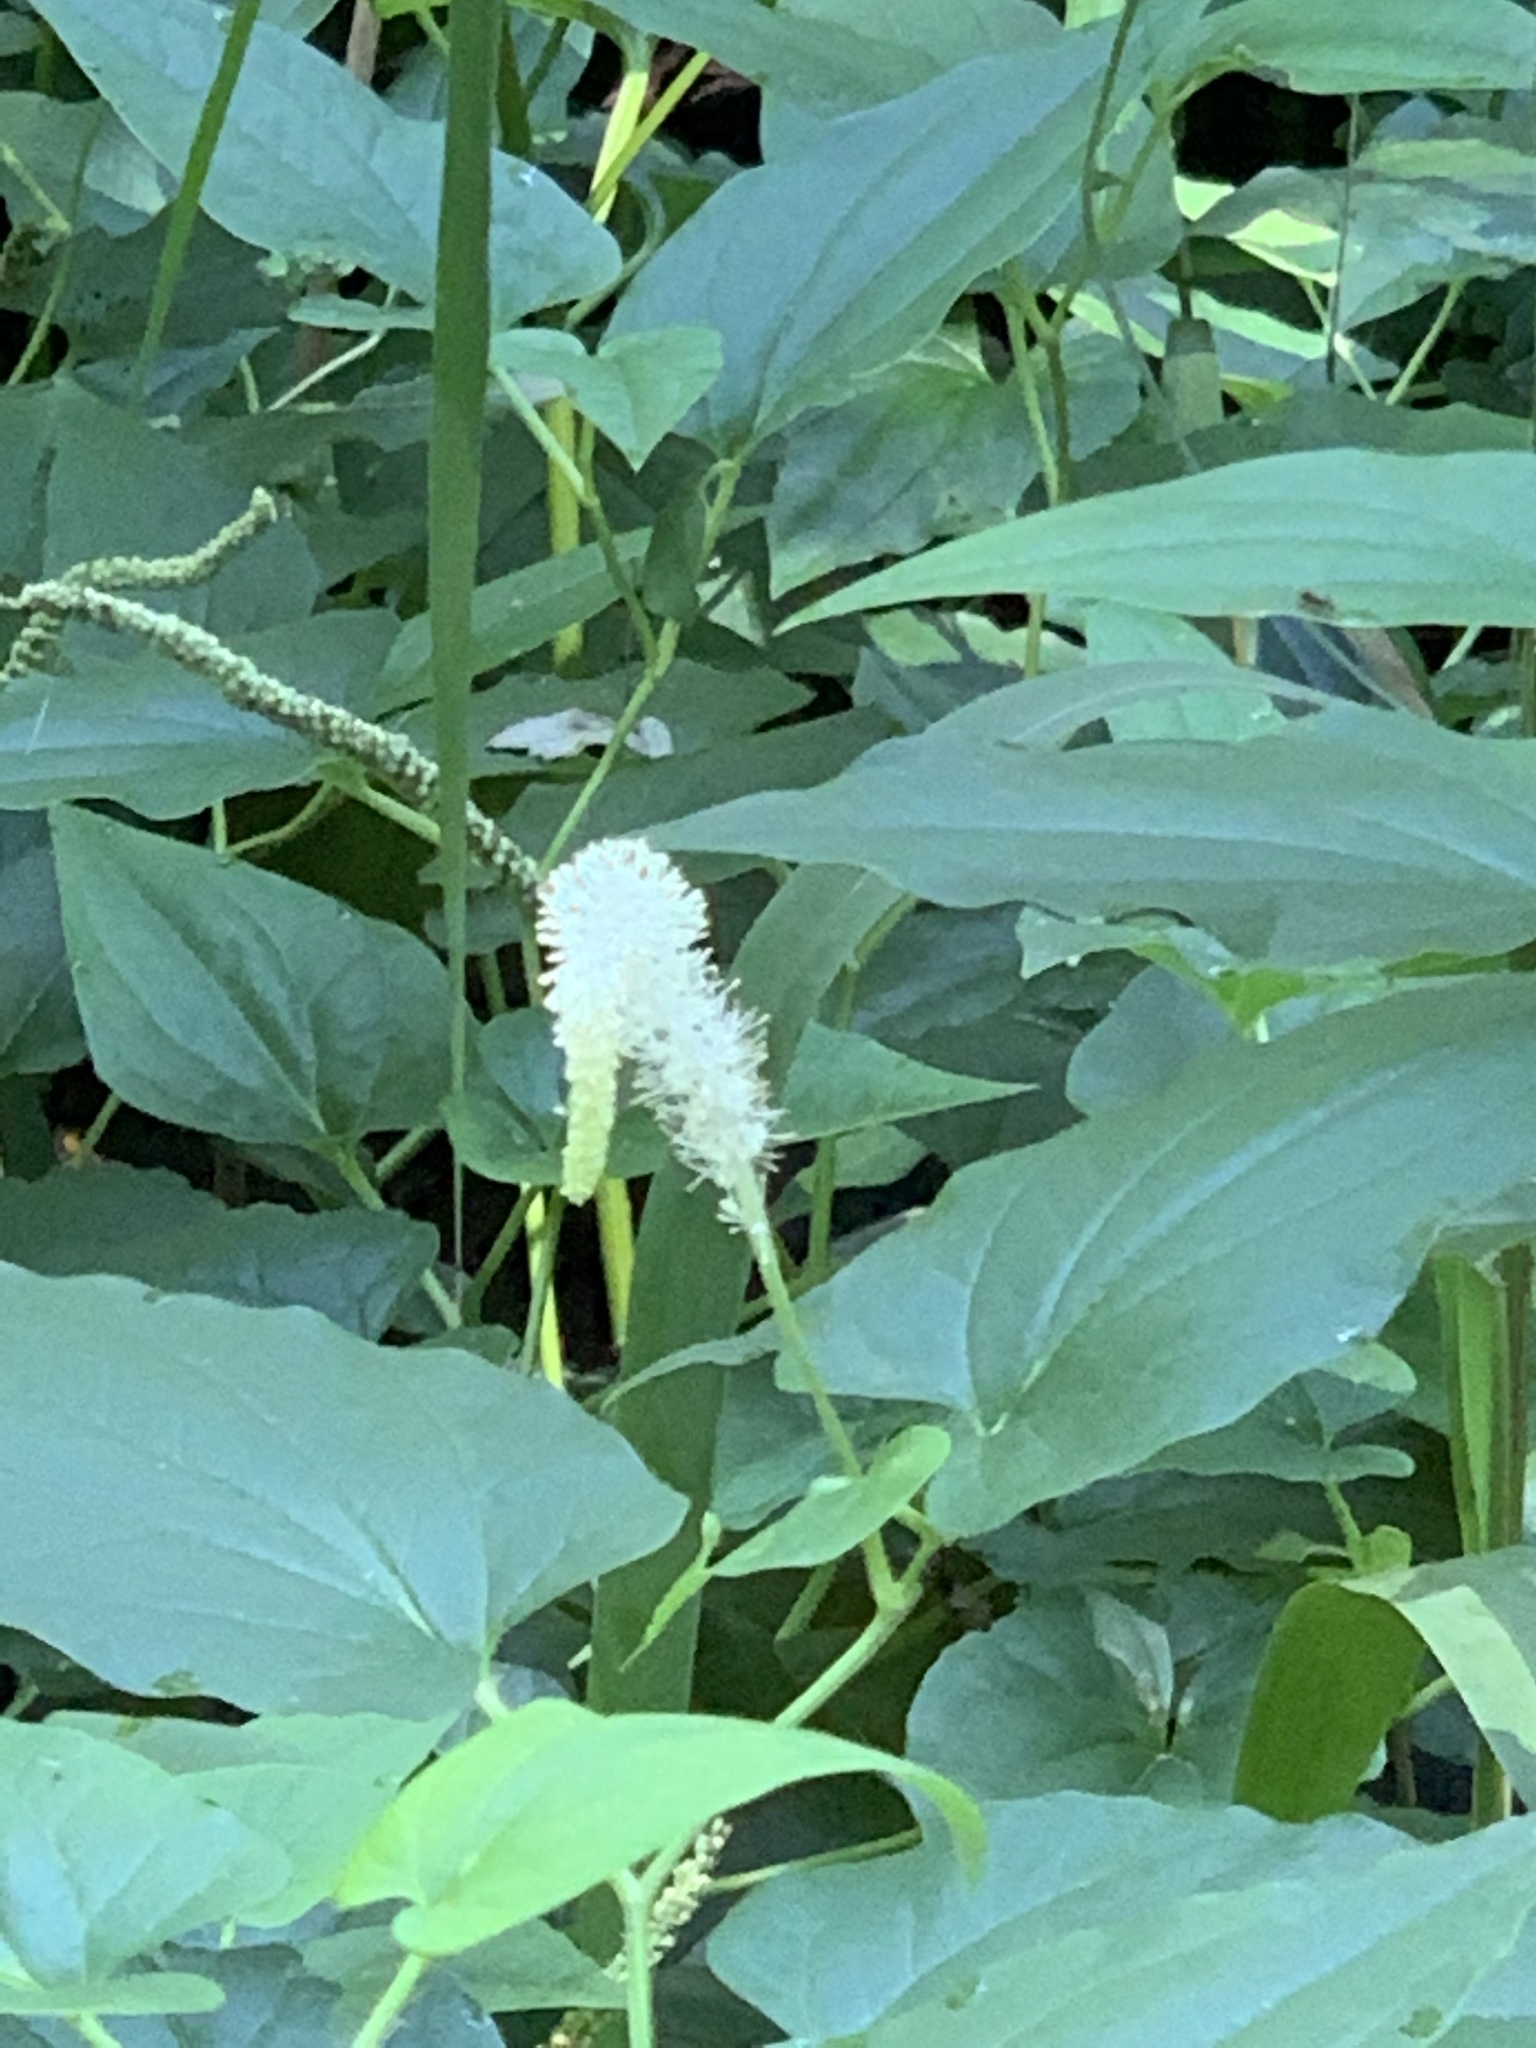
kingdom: Plantae
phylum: Tracheophyta
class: Magnoliopsida
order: Piperales
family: Saururaceae
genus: Saururus
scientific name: Saururus cernuus
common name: Lizard's-tail
